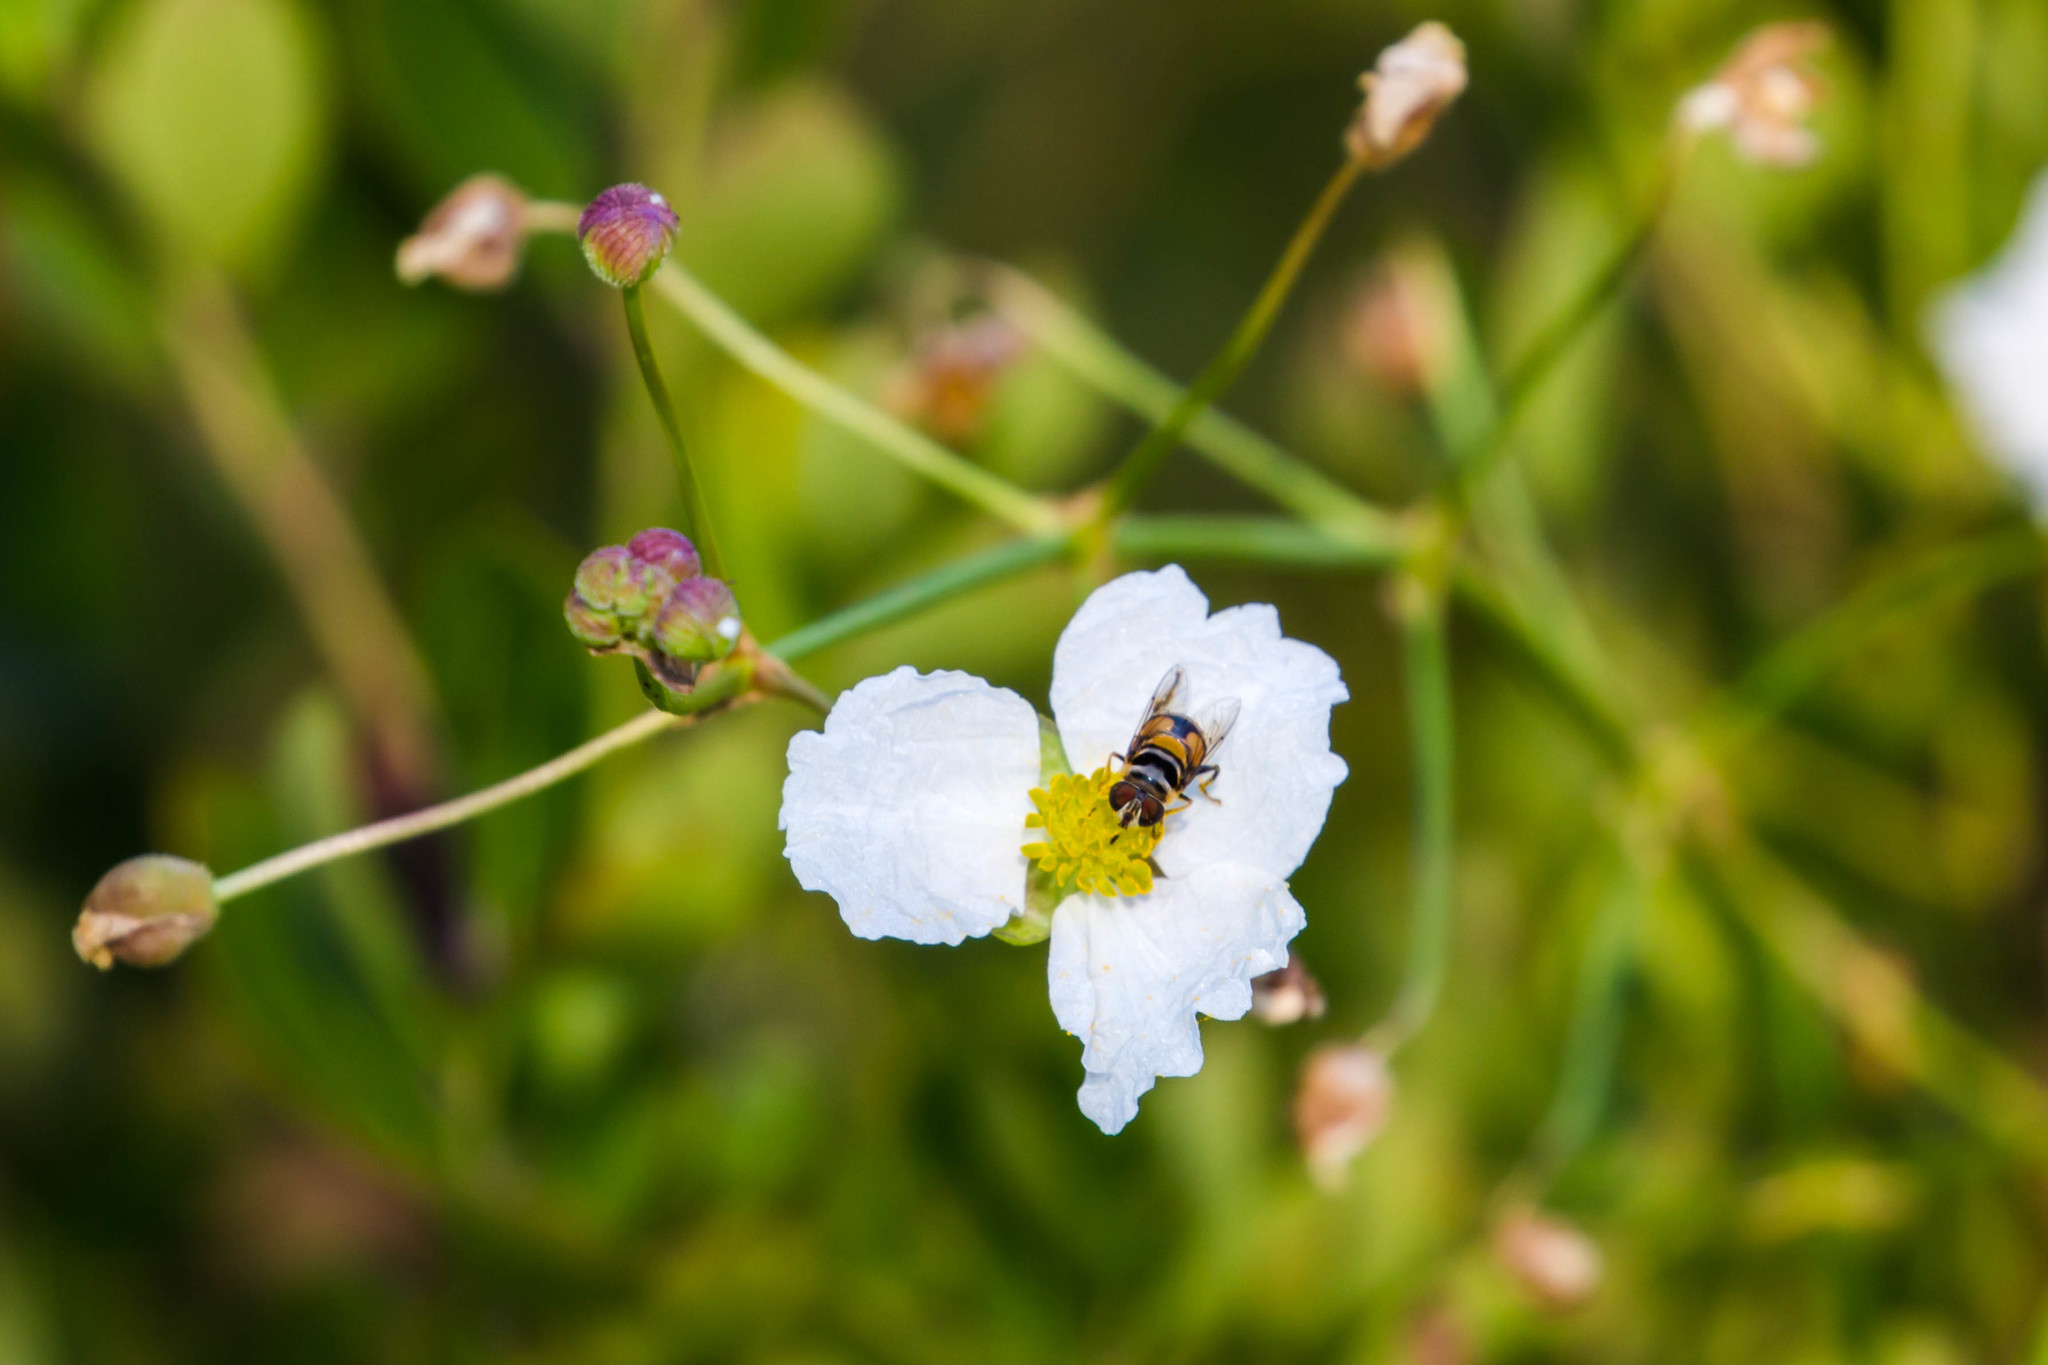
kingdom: Animalia
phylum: Arthropoda
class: Insecta
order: Diptera
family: Syrphidae
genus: Palpada
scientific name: Palpada agrorum
